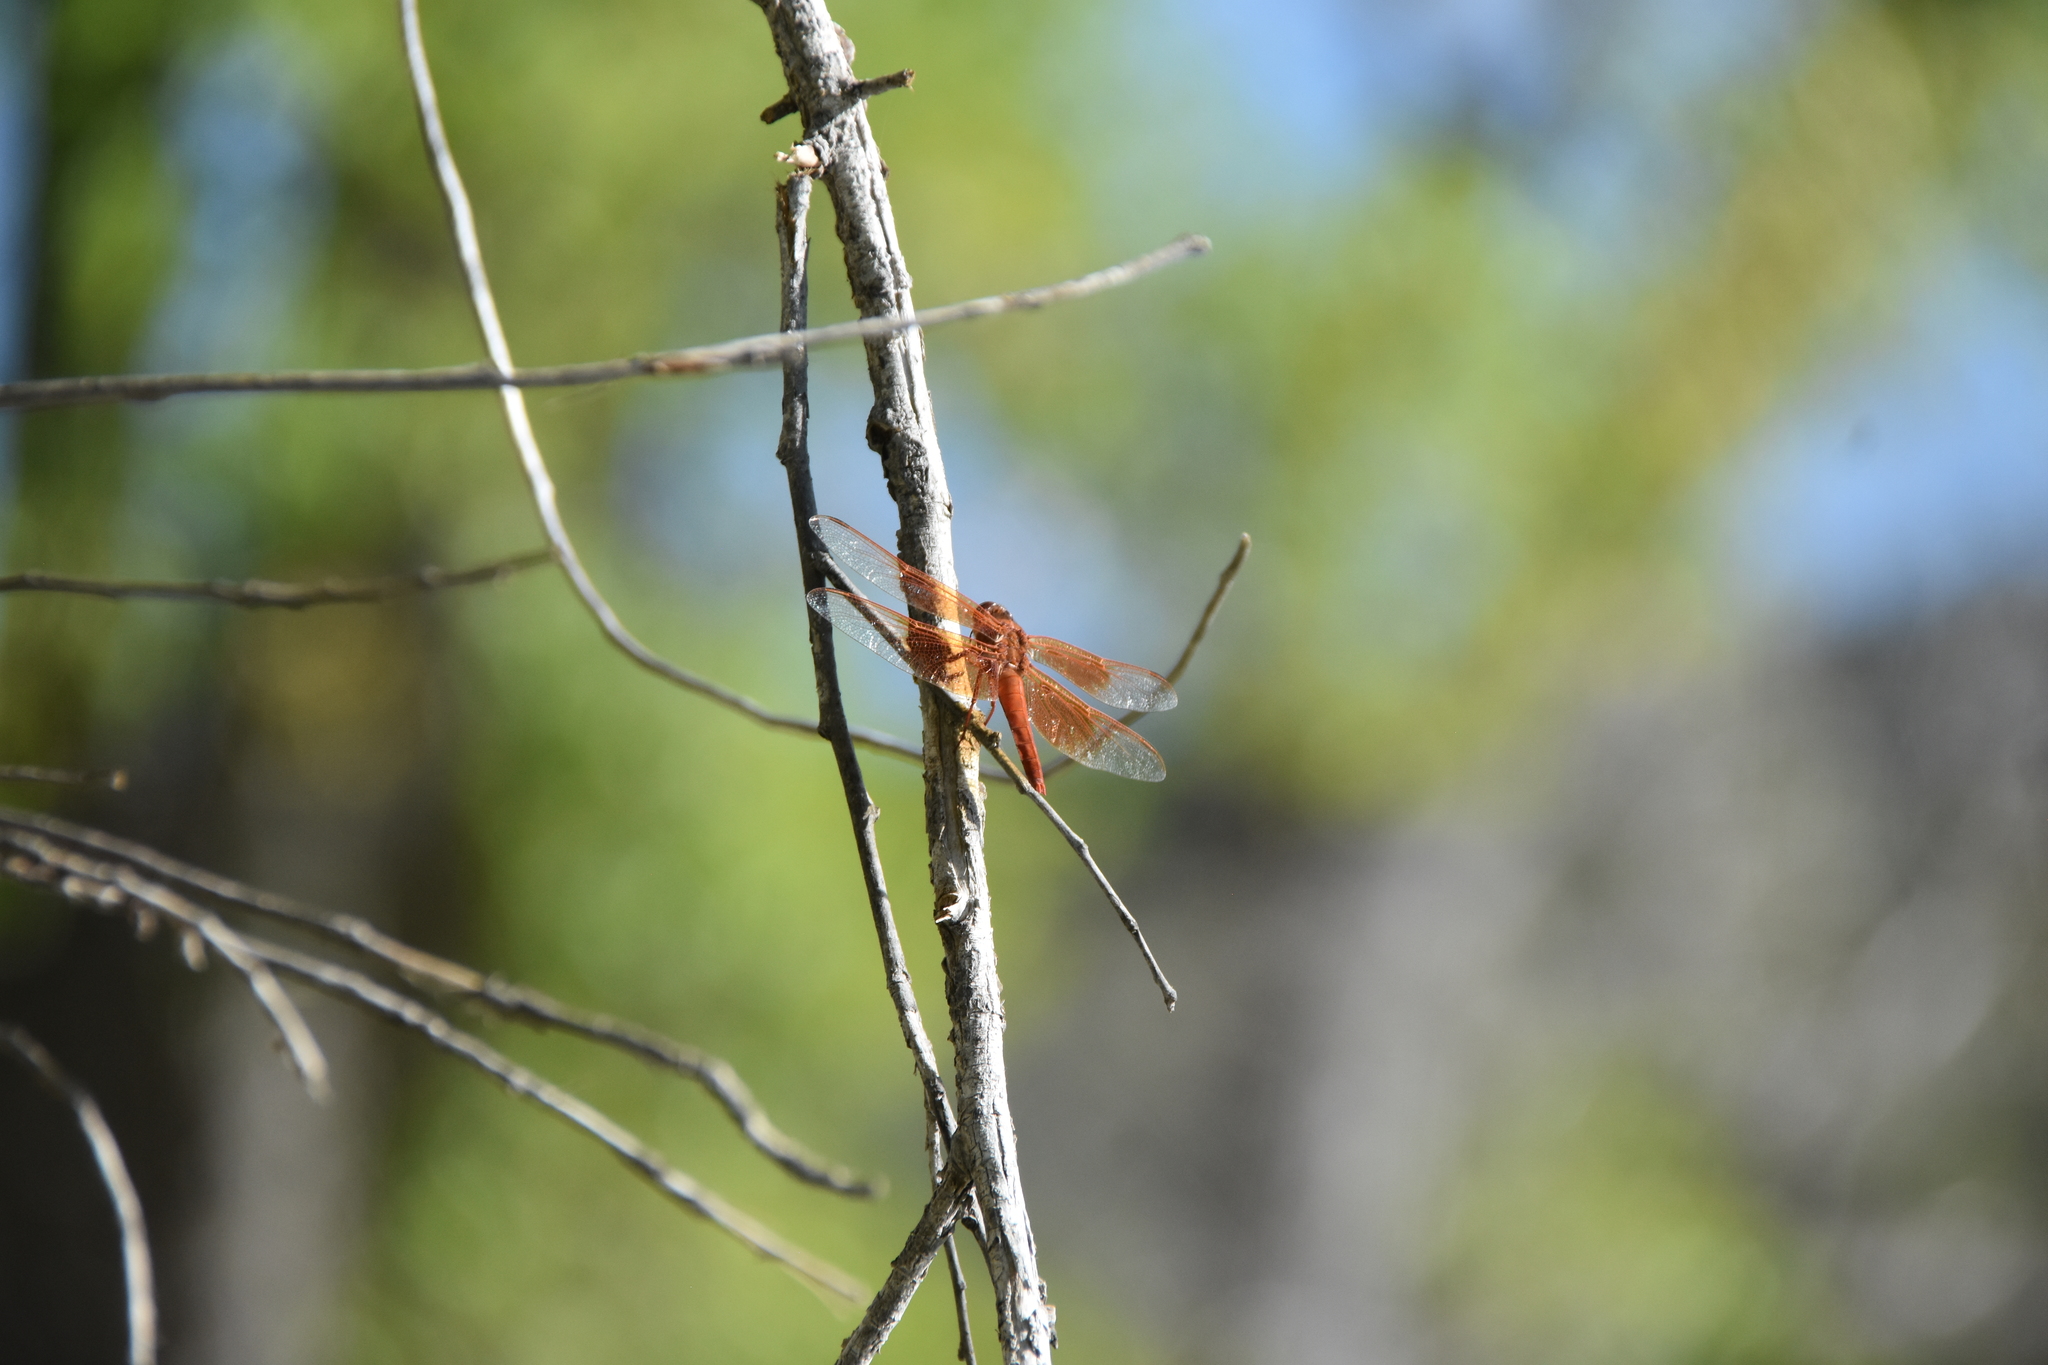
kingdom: Animalia
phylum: Arthropoda
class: Insecta
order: Odonata
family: Libellulidae
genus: Libellula
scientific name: Libellula saturata
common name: Flame skimmer
